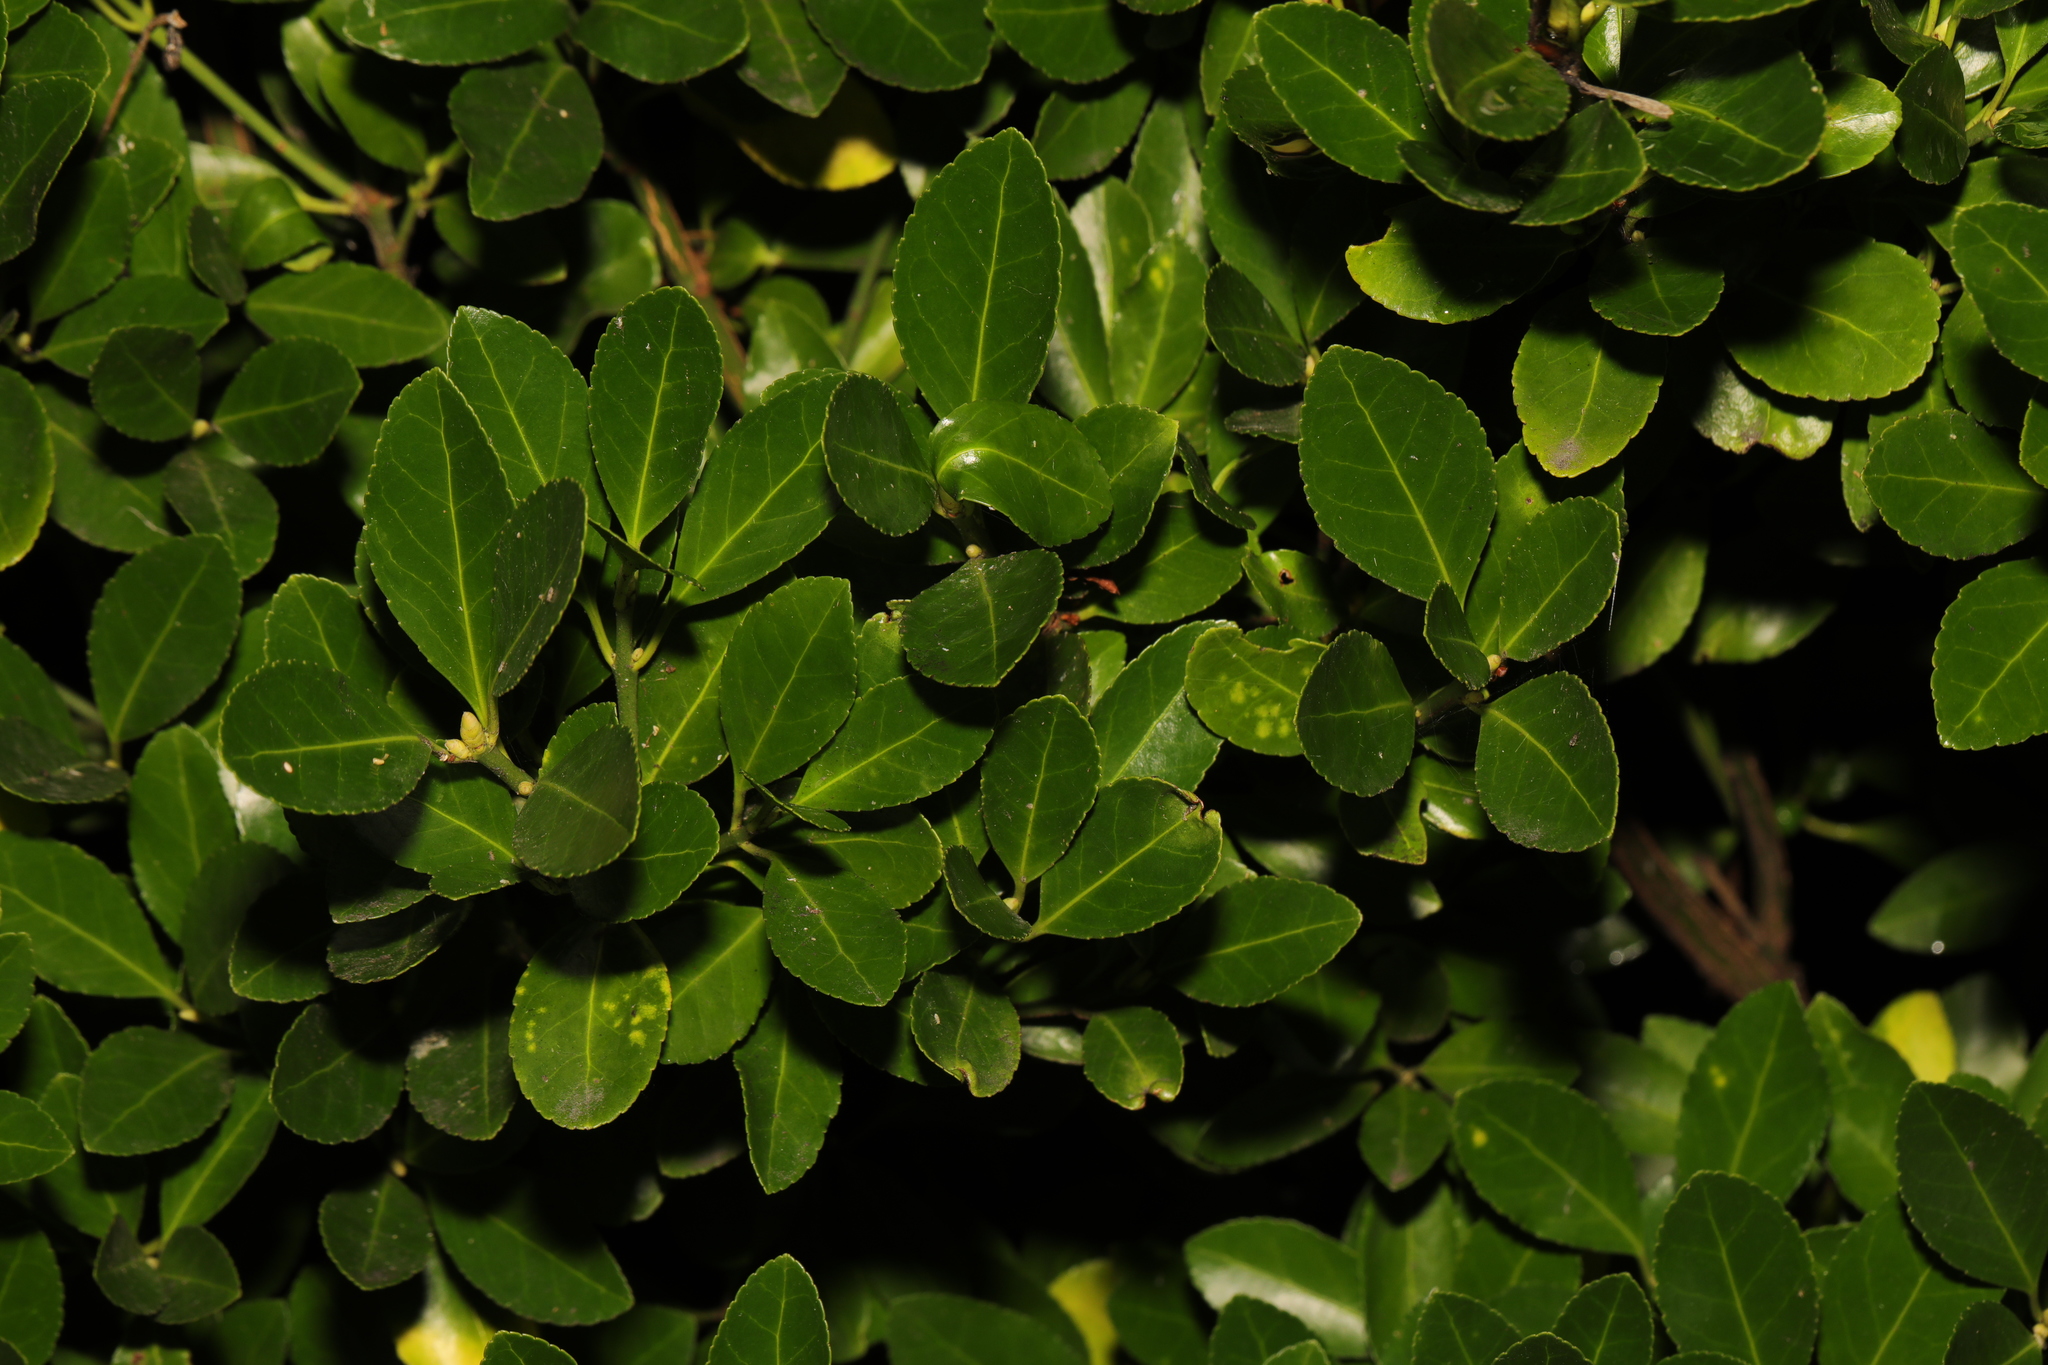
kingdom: Plantae
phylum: Tracheophyta
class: Magnoliopsida
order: Celastrales
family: Celastraceae
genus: Euonymus
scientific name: Euonymus japonicus
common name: Japanese spindletree
